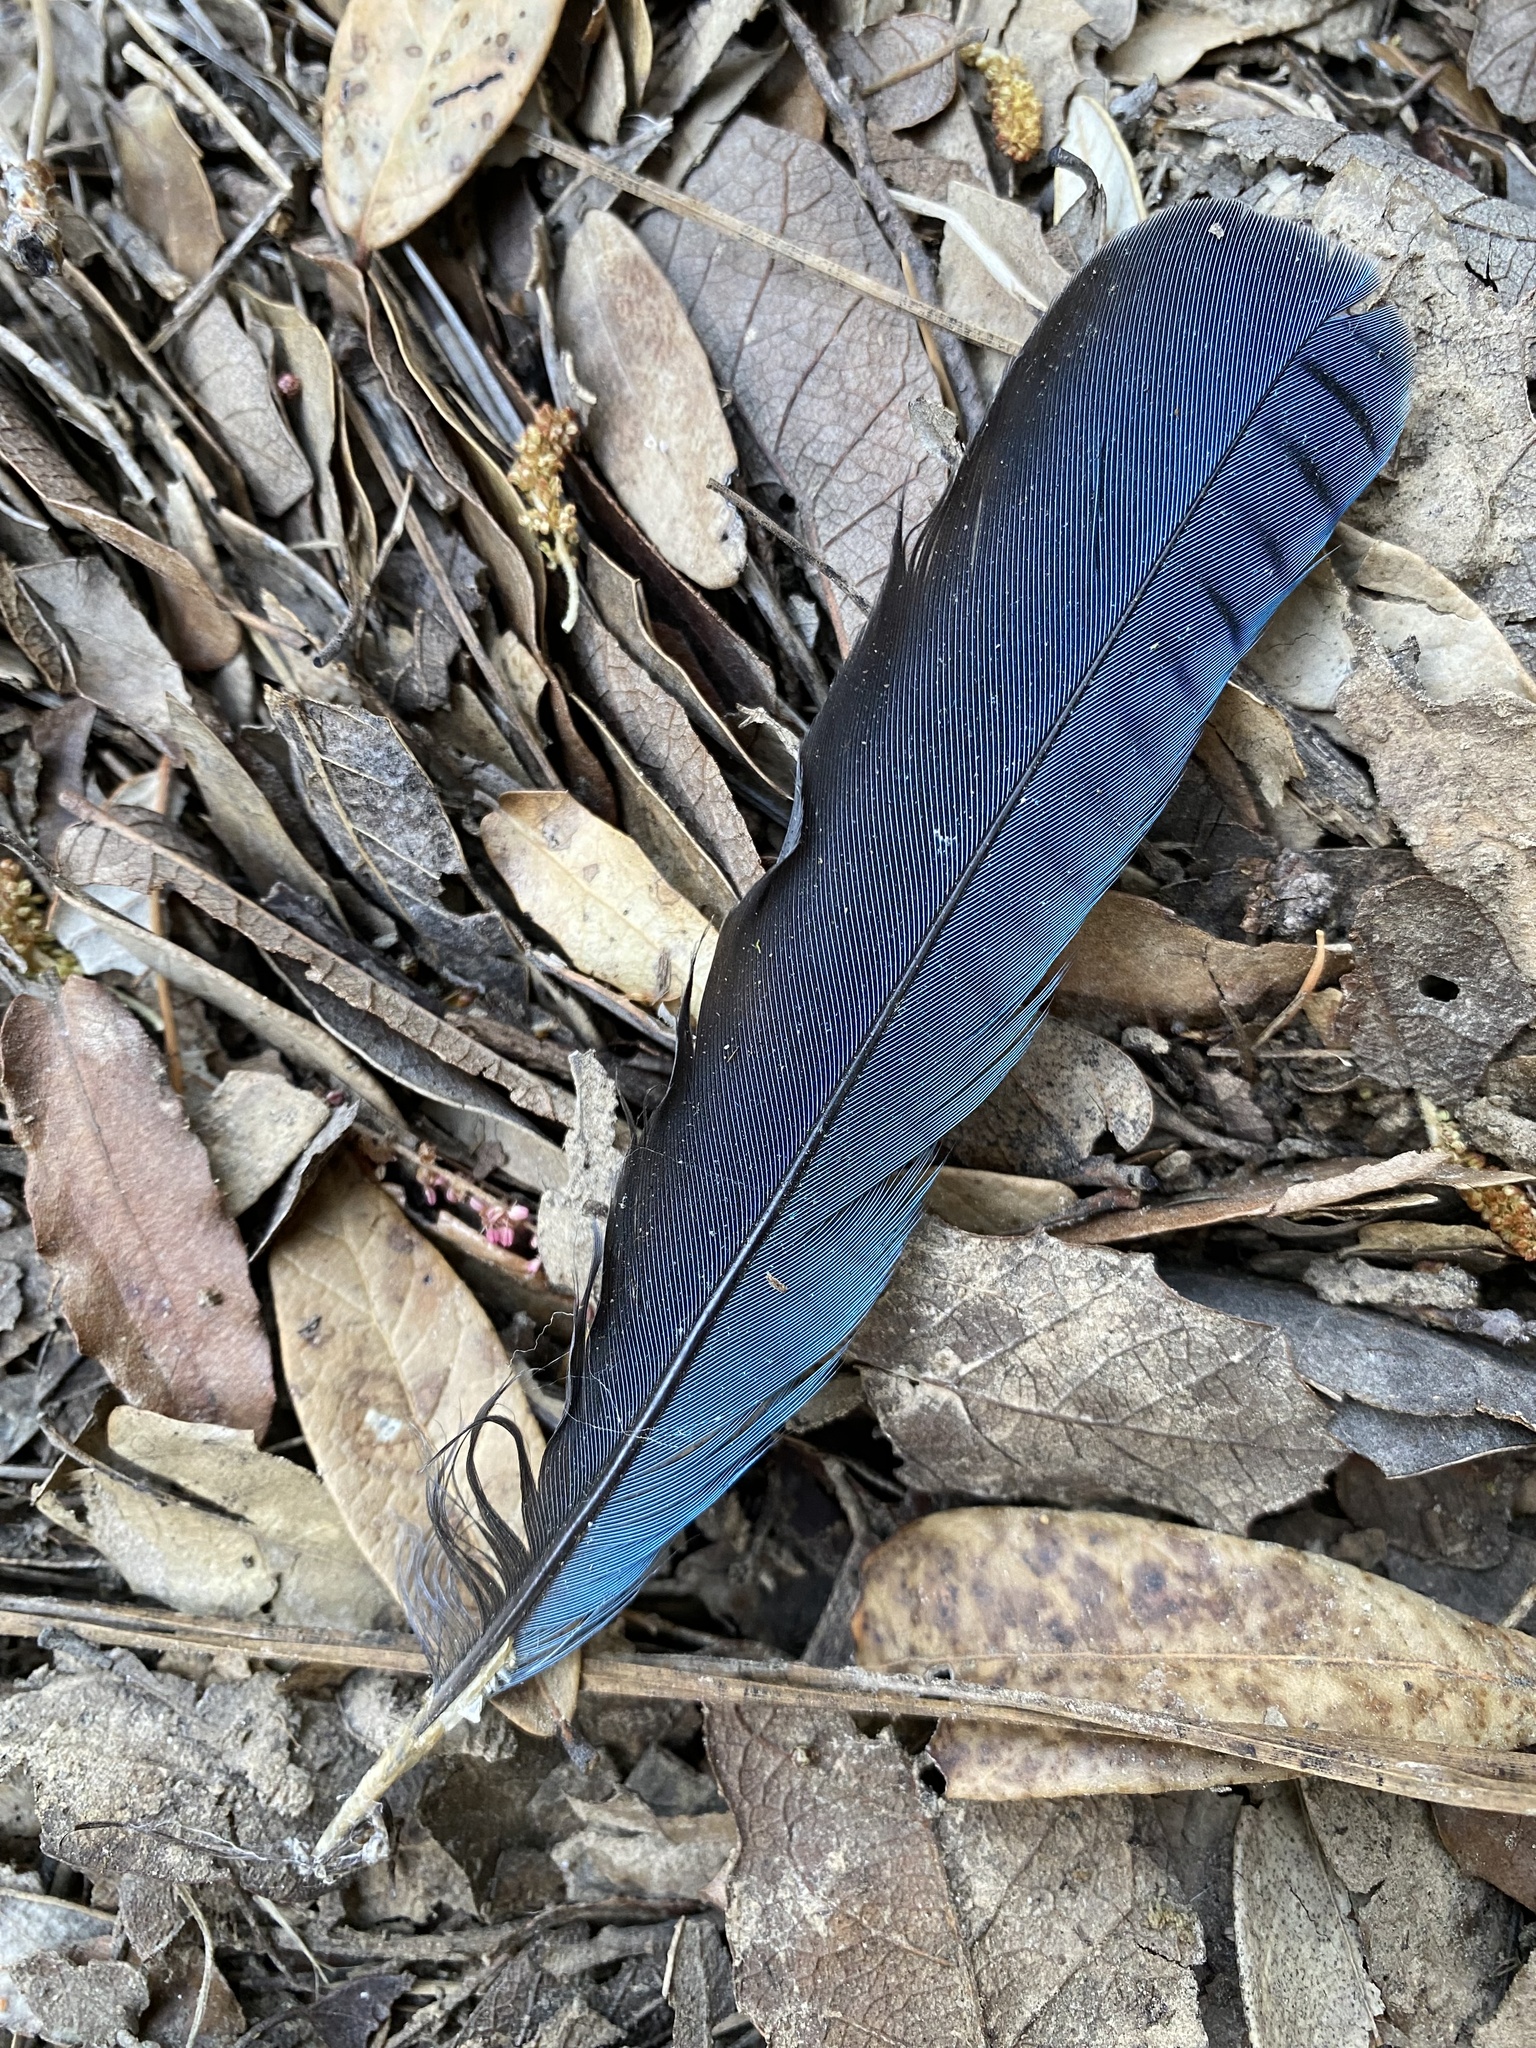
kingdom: Animalia
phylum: Chordata
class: Aves
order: Passeriformes
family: Corvidae
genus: Cyanocitta
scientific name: Cyanocitta stelleri
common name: Steller's jay
